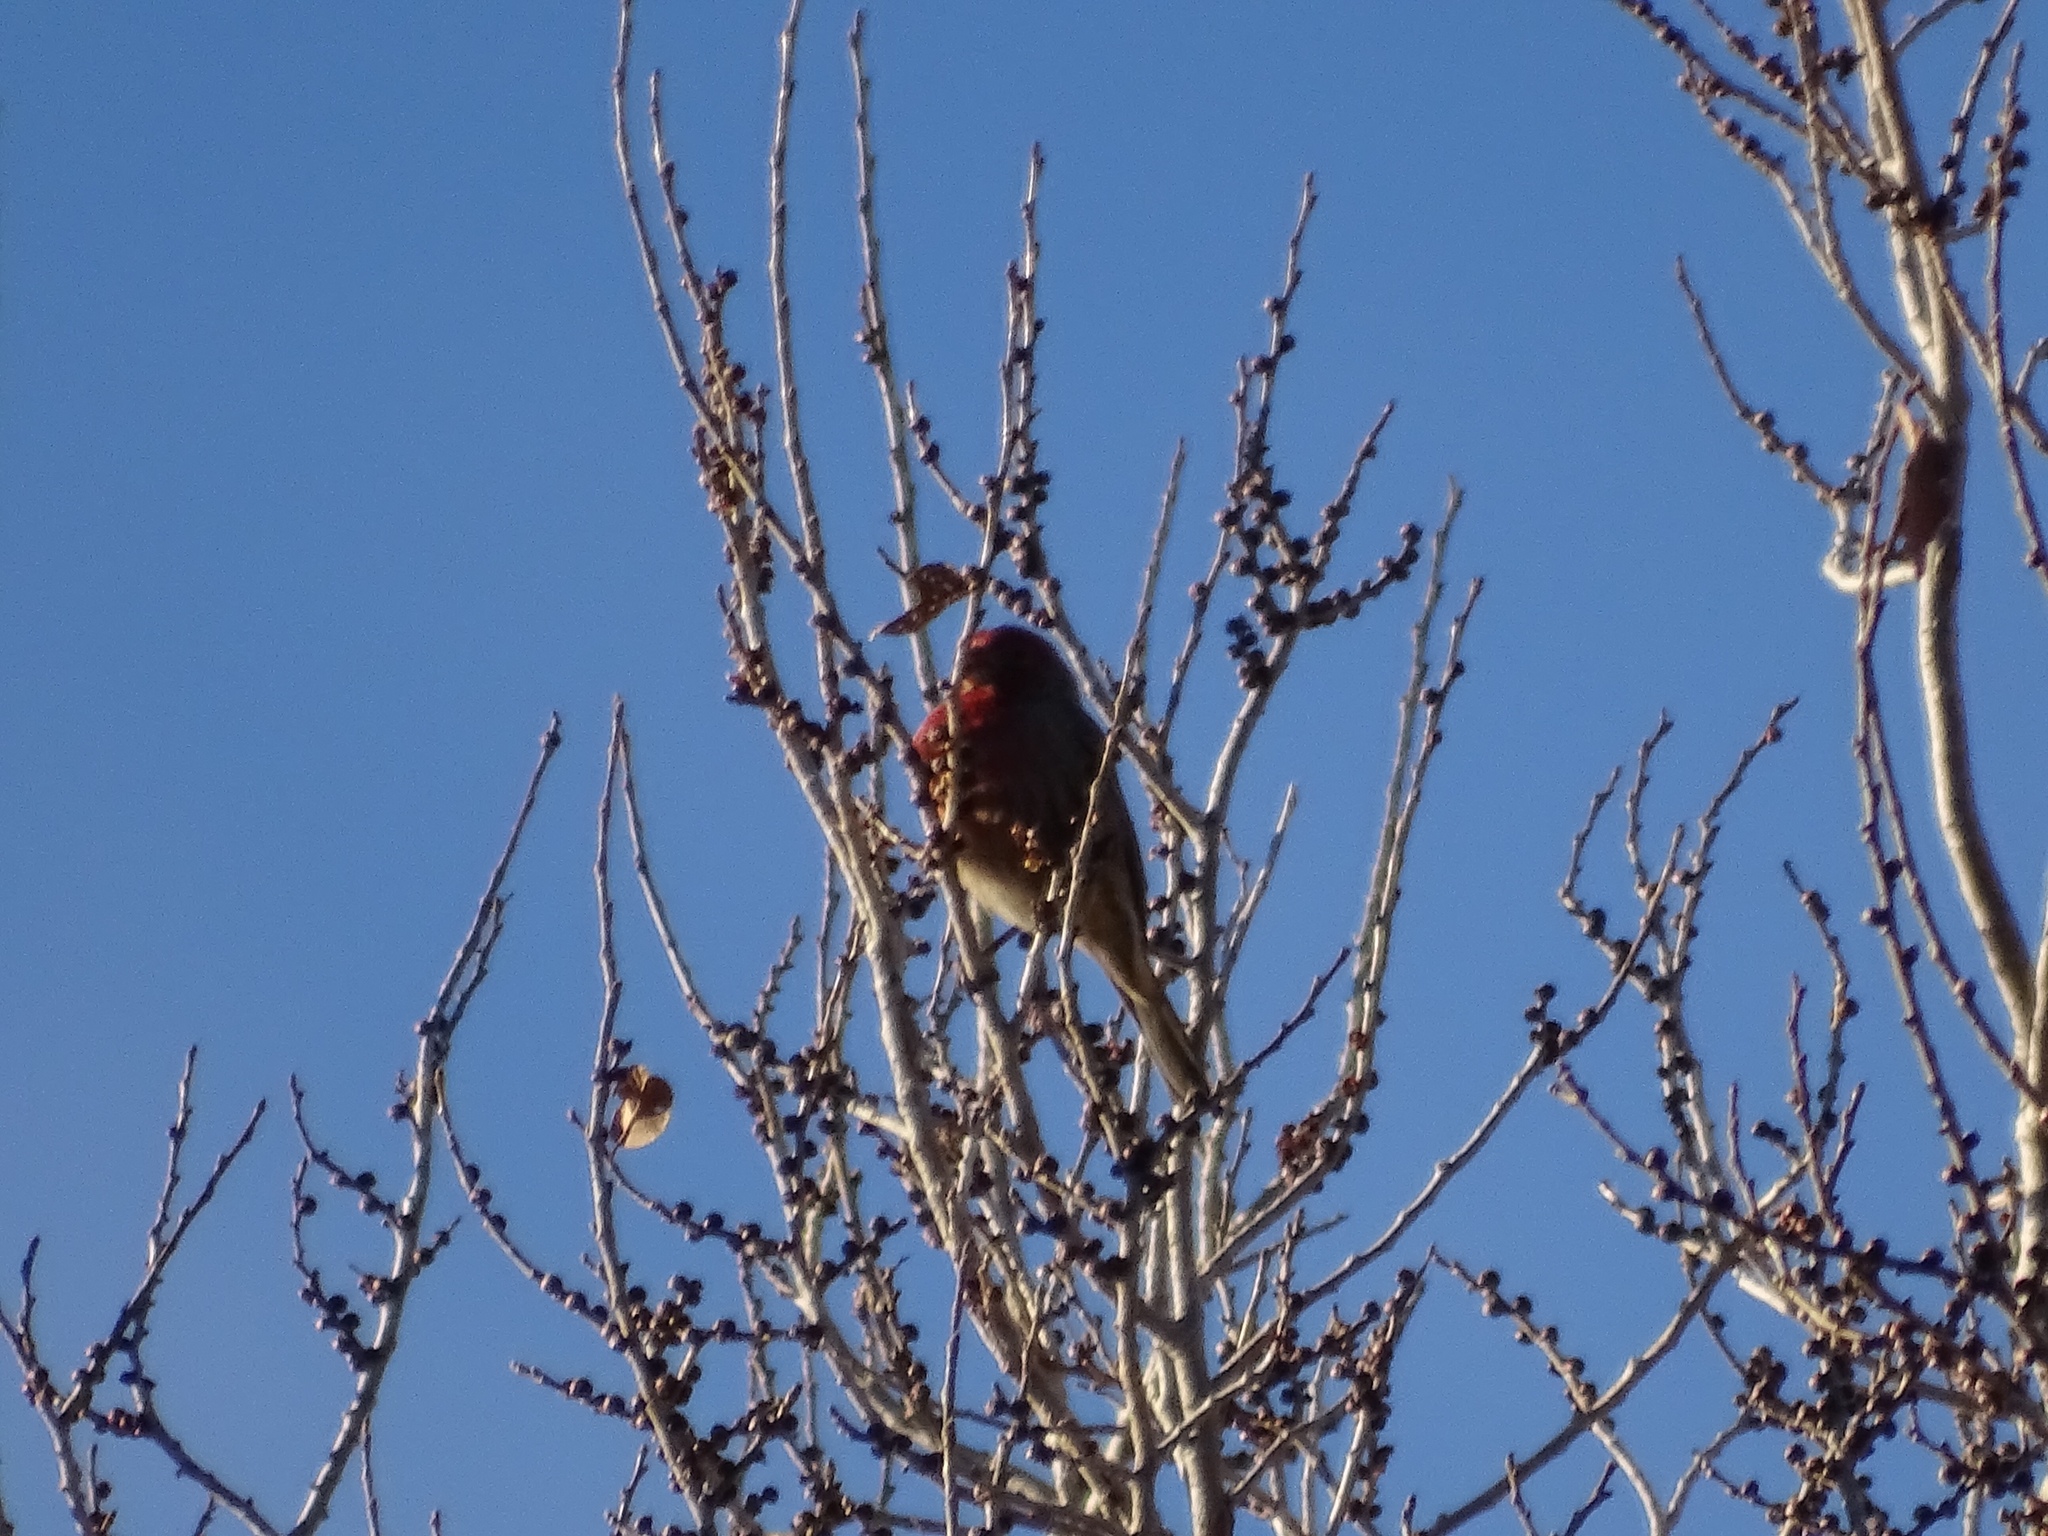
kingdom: Animalia
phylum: Chordata
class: Aves
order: Passeriformes
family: Fringillidae
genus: Haemorhous
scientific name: Haemorhous mexicanus
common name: House finch
